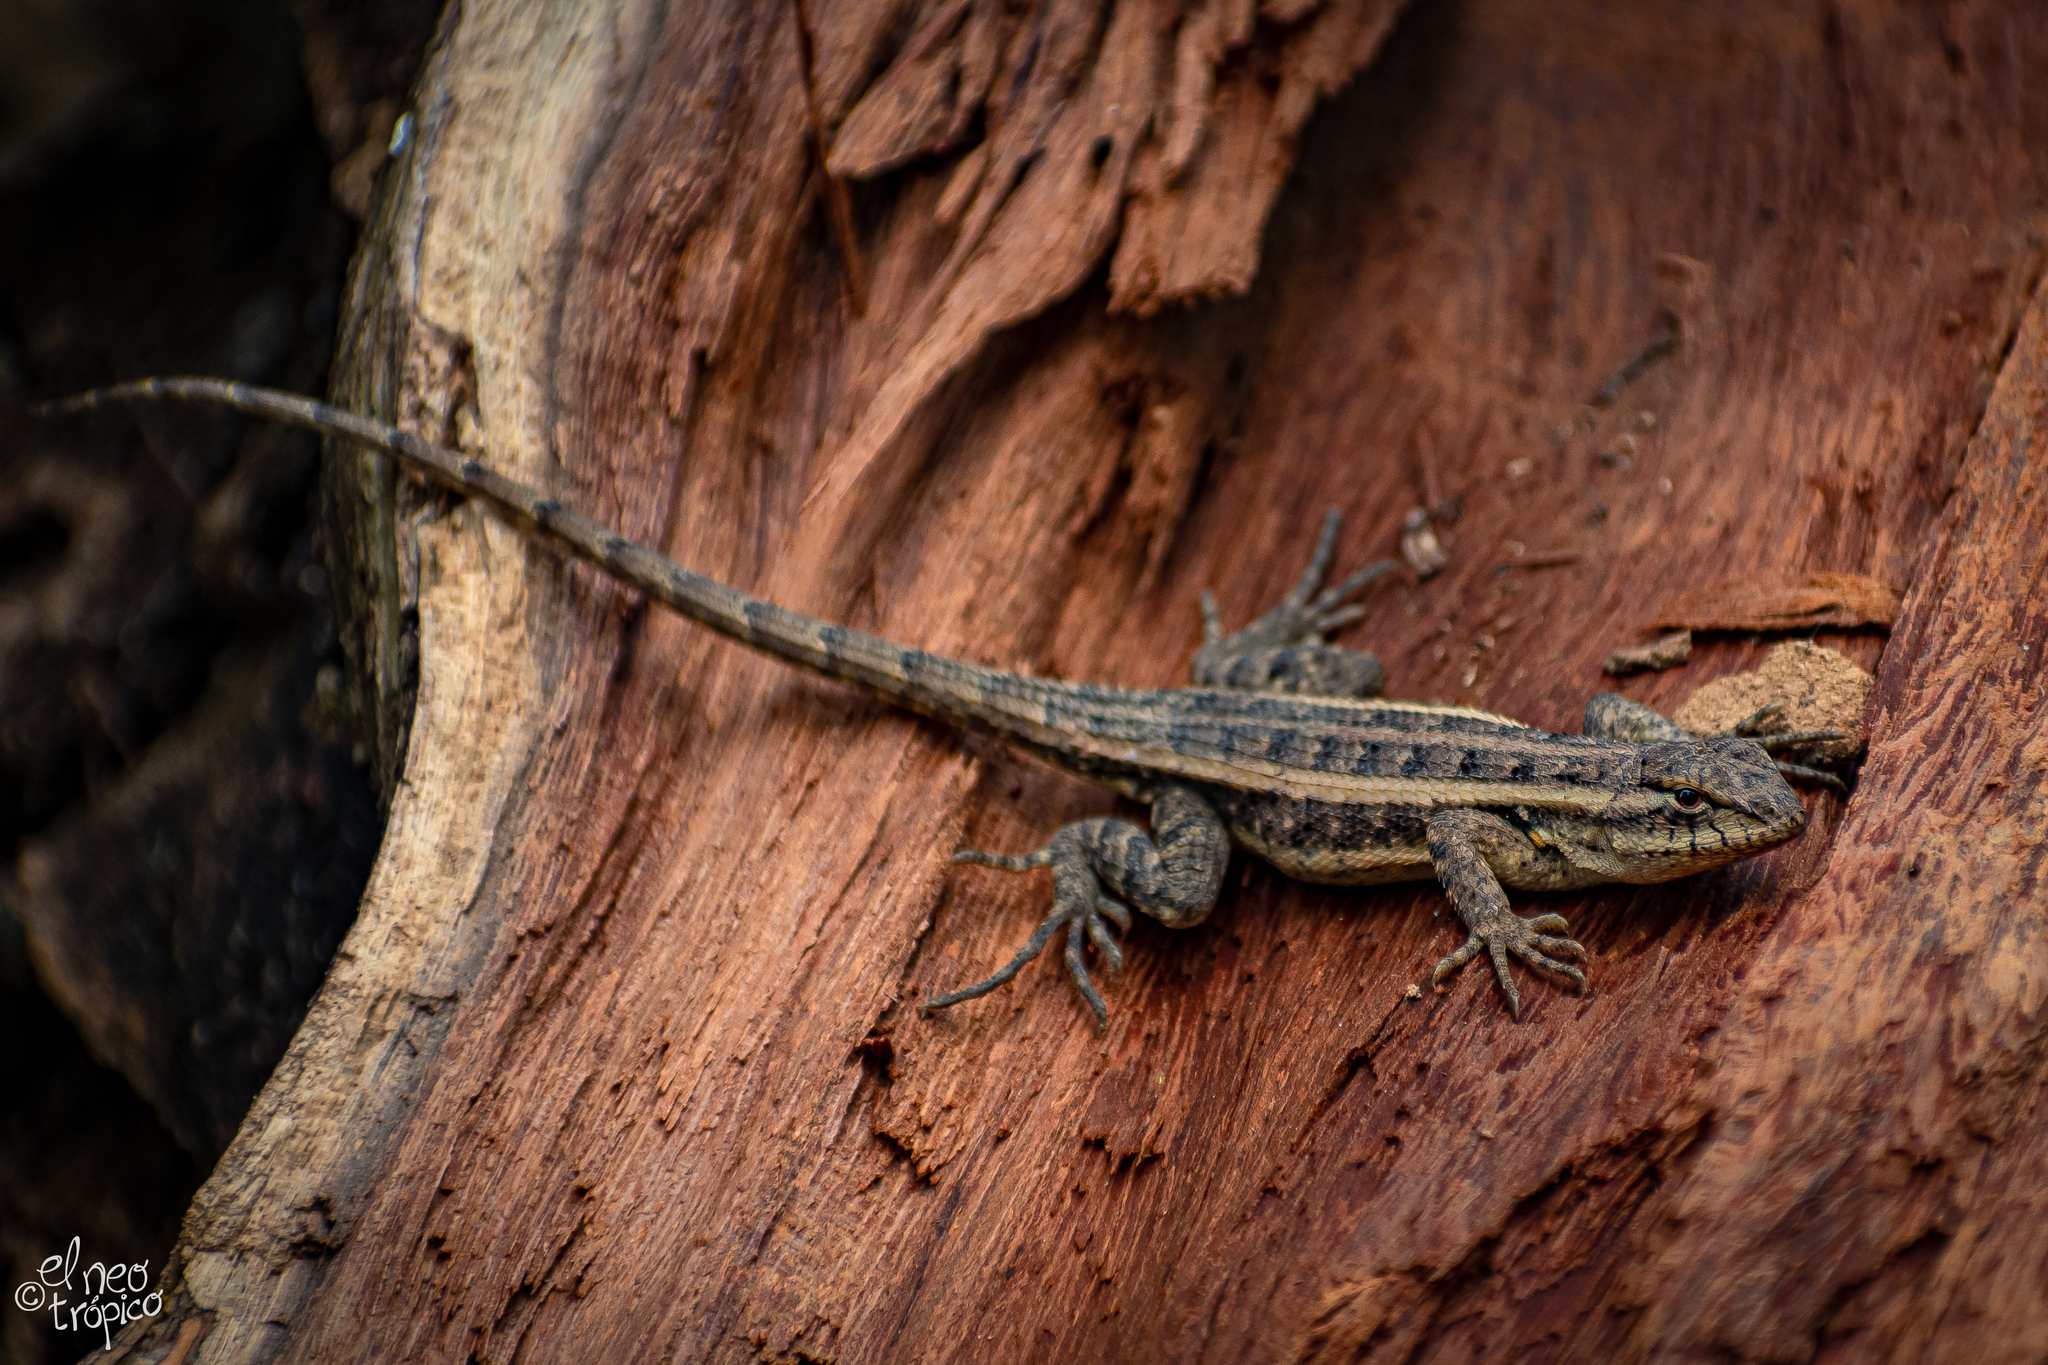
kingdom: Animalia
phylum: Chordata
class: Squamata
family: Phrynosomatidae
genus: Sceloporus
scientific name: Sceloporus variabilis
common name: Rosebelly lizard
